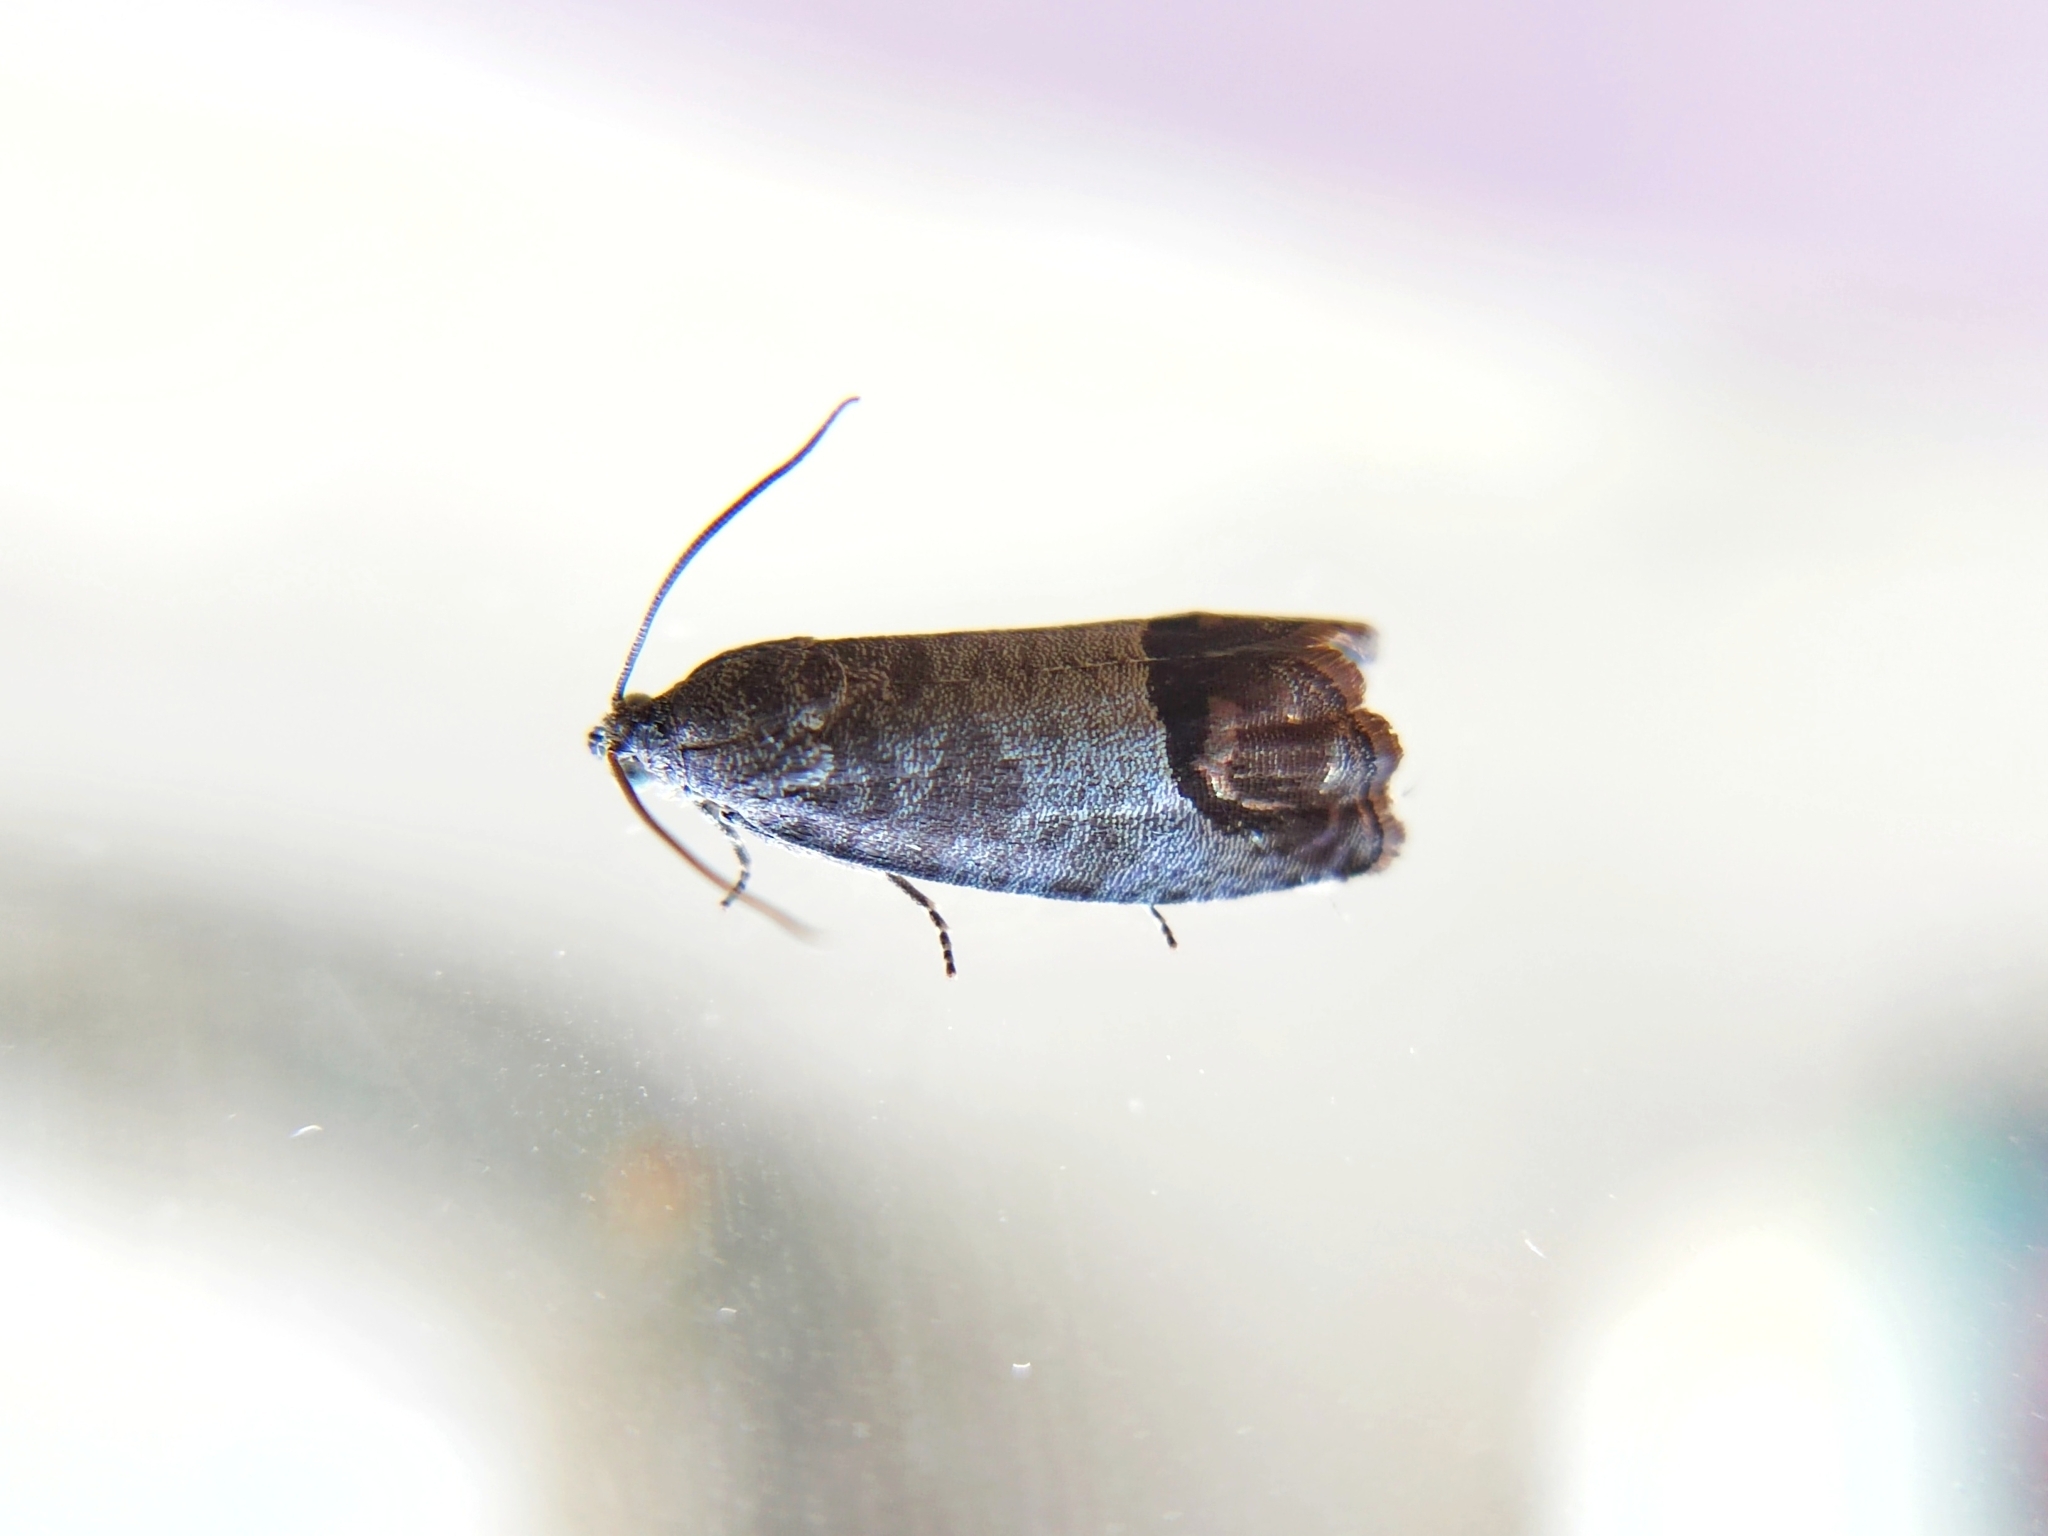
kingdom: Animalia
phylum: Arthropoda
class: Insecta
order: Lepidoptera
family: Tortricidae
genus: Cydia
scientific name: Cydia pomonella
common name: Codling moth
